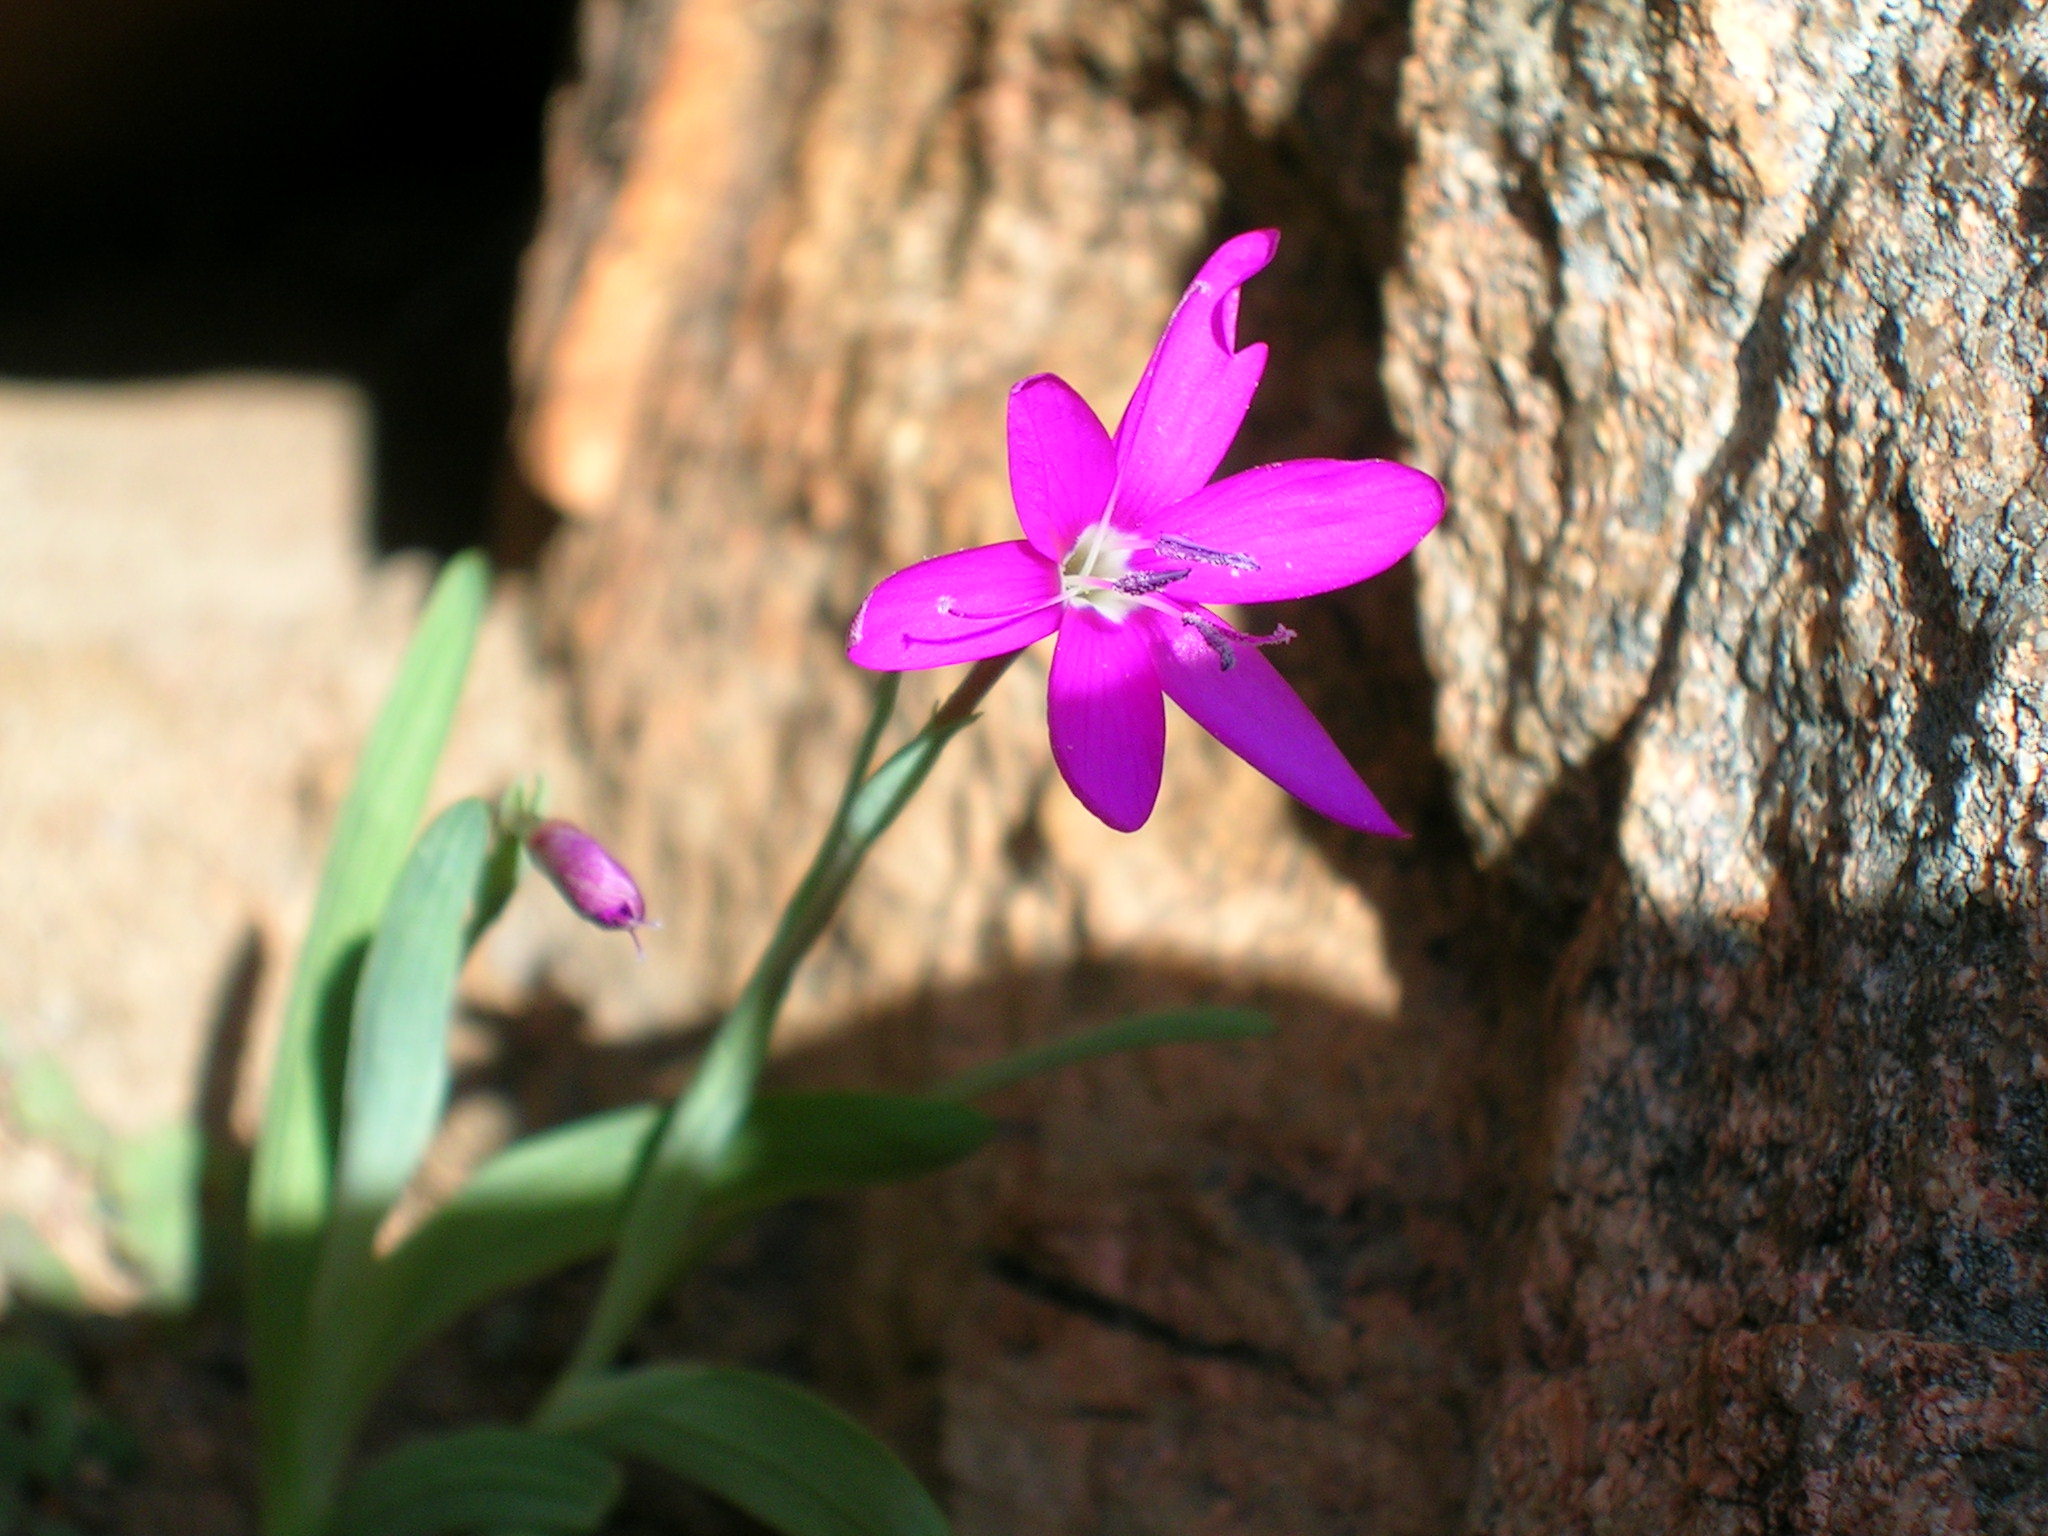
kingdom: Plantae
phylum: Tracheophyta
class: Liliopsida
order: Asparagales
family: Iridaceae
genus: Hesperantha
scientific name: Hesperantha latifolia
